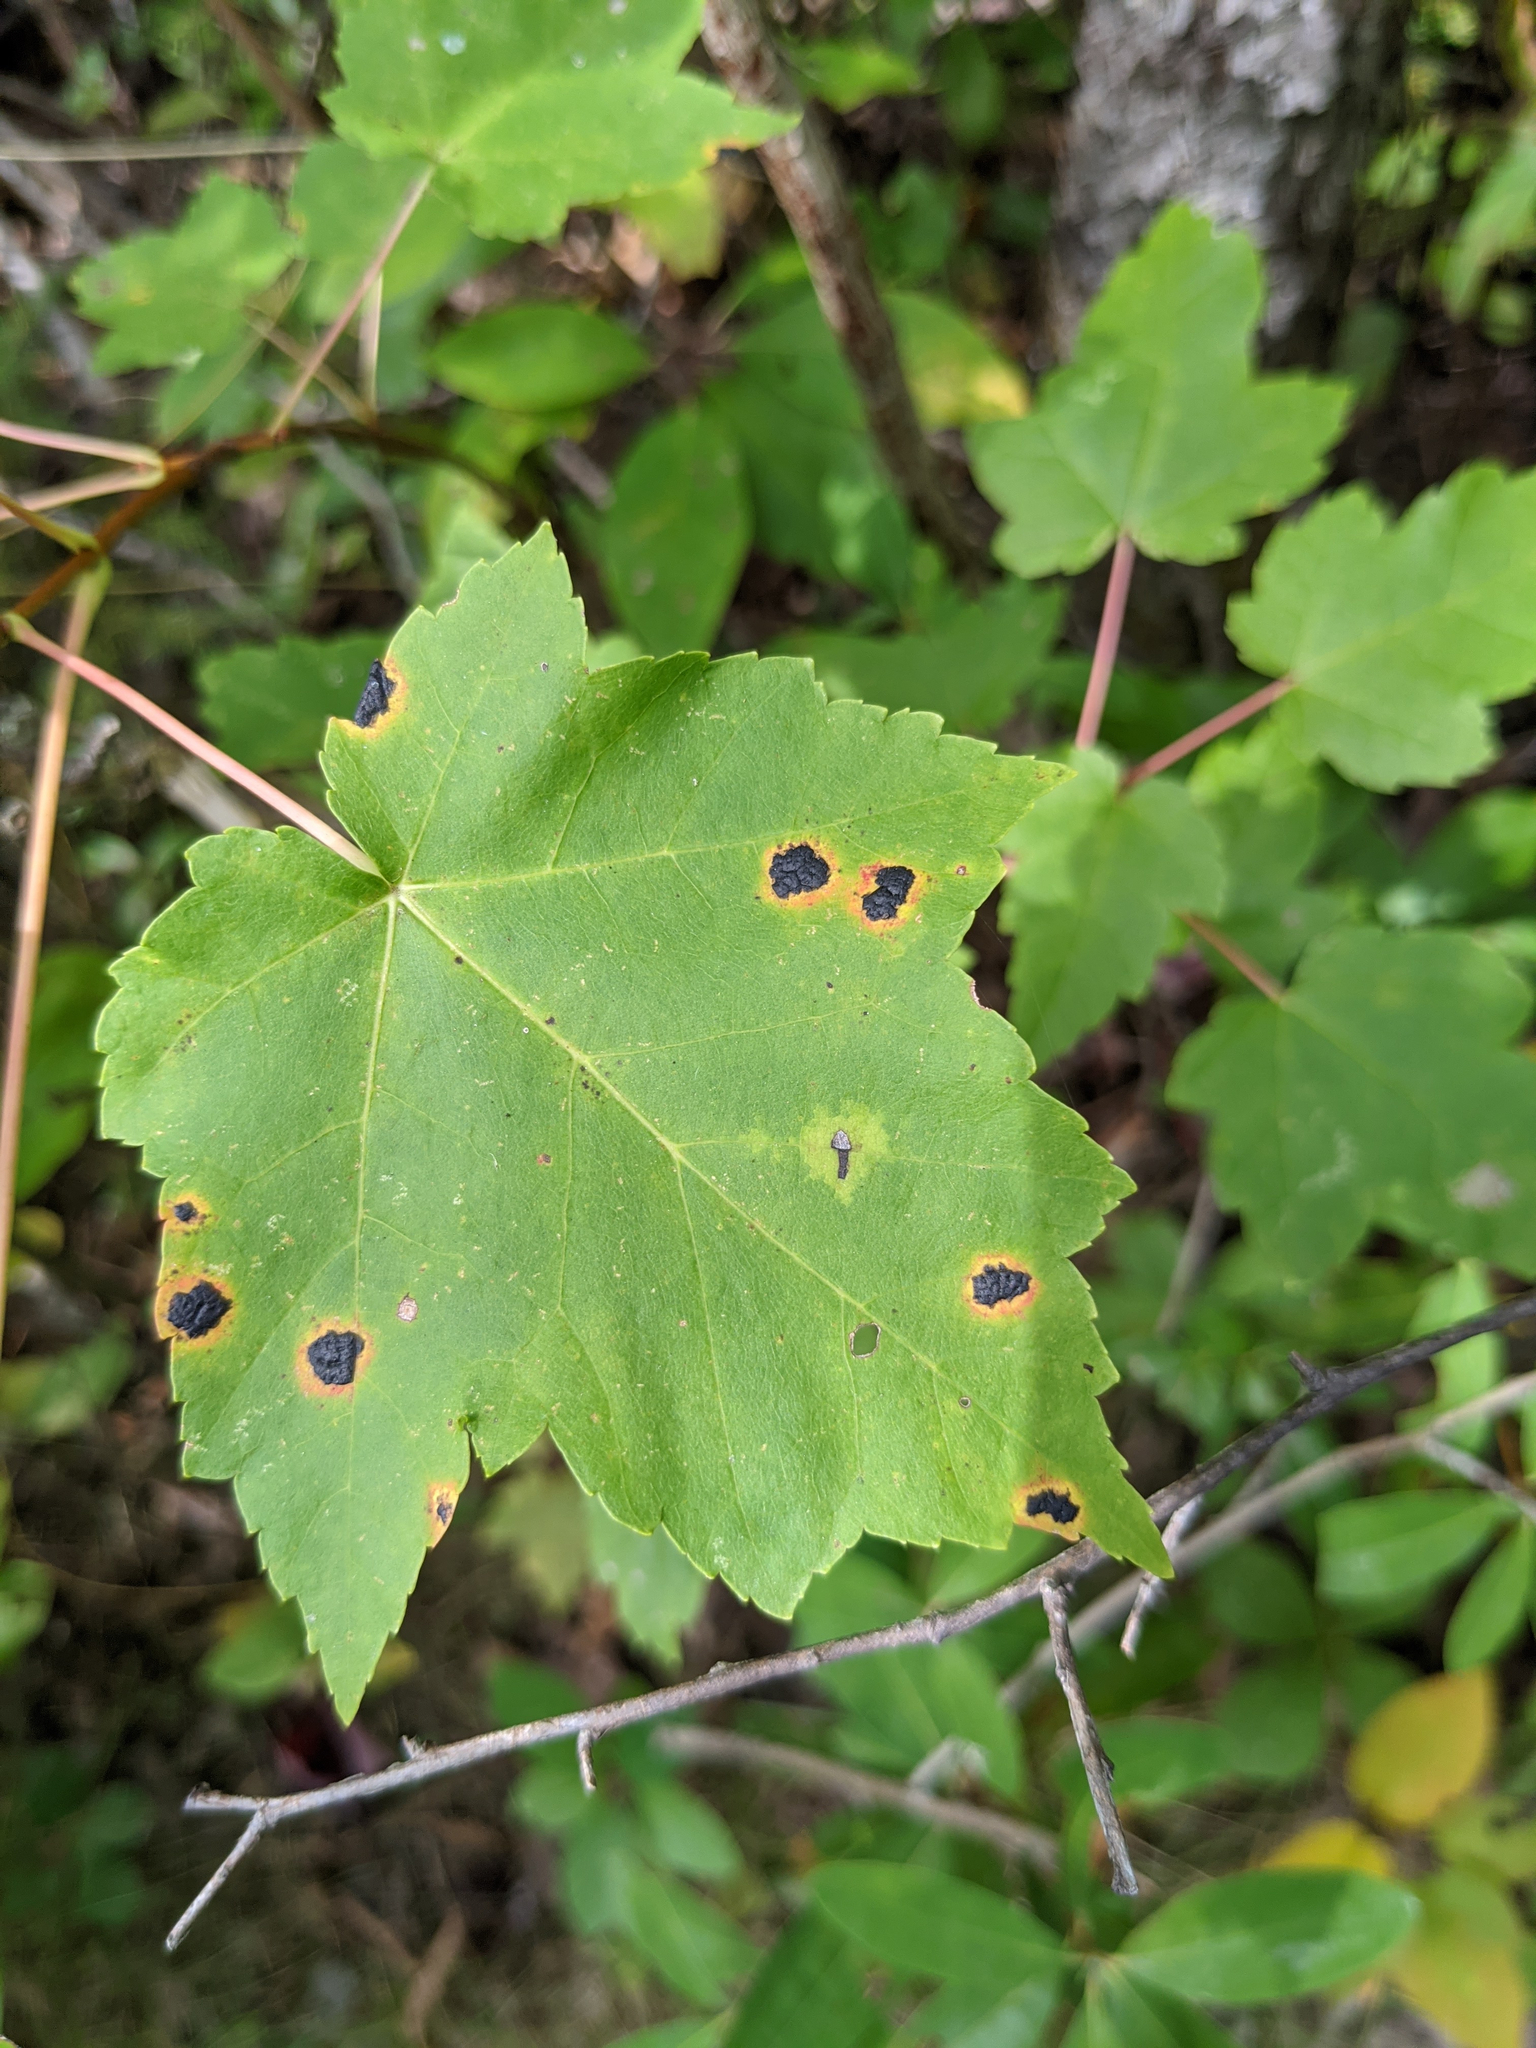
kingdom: Plantae
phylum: Tracheophyta
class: Magnoliopsida
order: Sapindales
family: Sapindaceae
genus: Acer
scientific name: Acer rubrum
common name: Red maple
